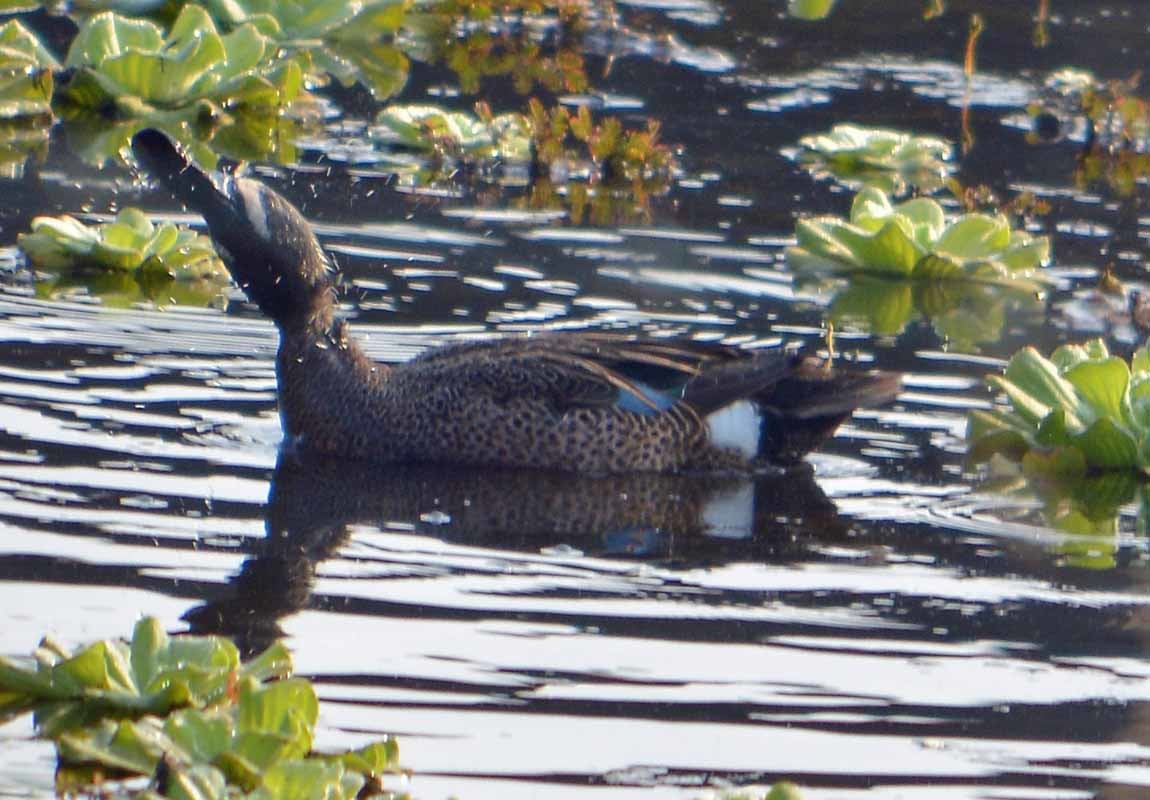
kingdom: Animalia
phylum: Chordata
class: Aves
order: Anseriformes
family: Anatidae
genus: Spatula
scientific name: Spatula discors
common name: Blue-winged teal
